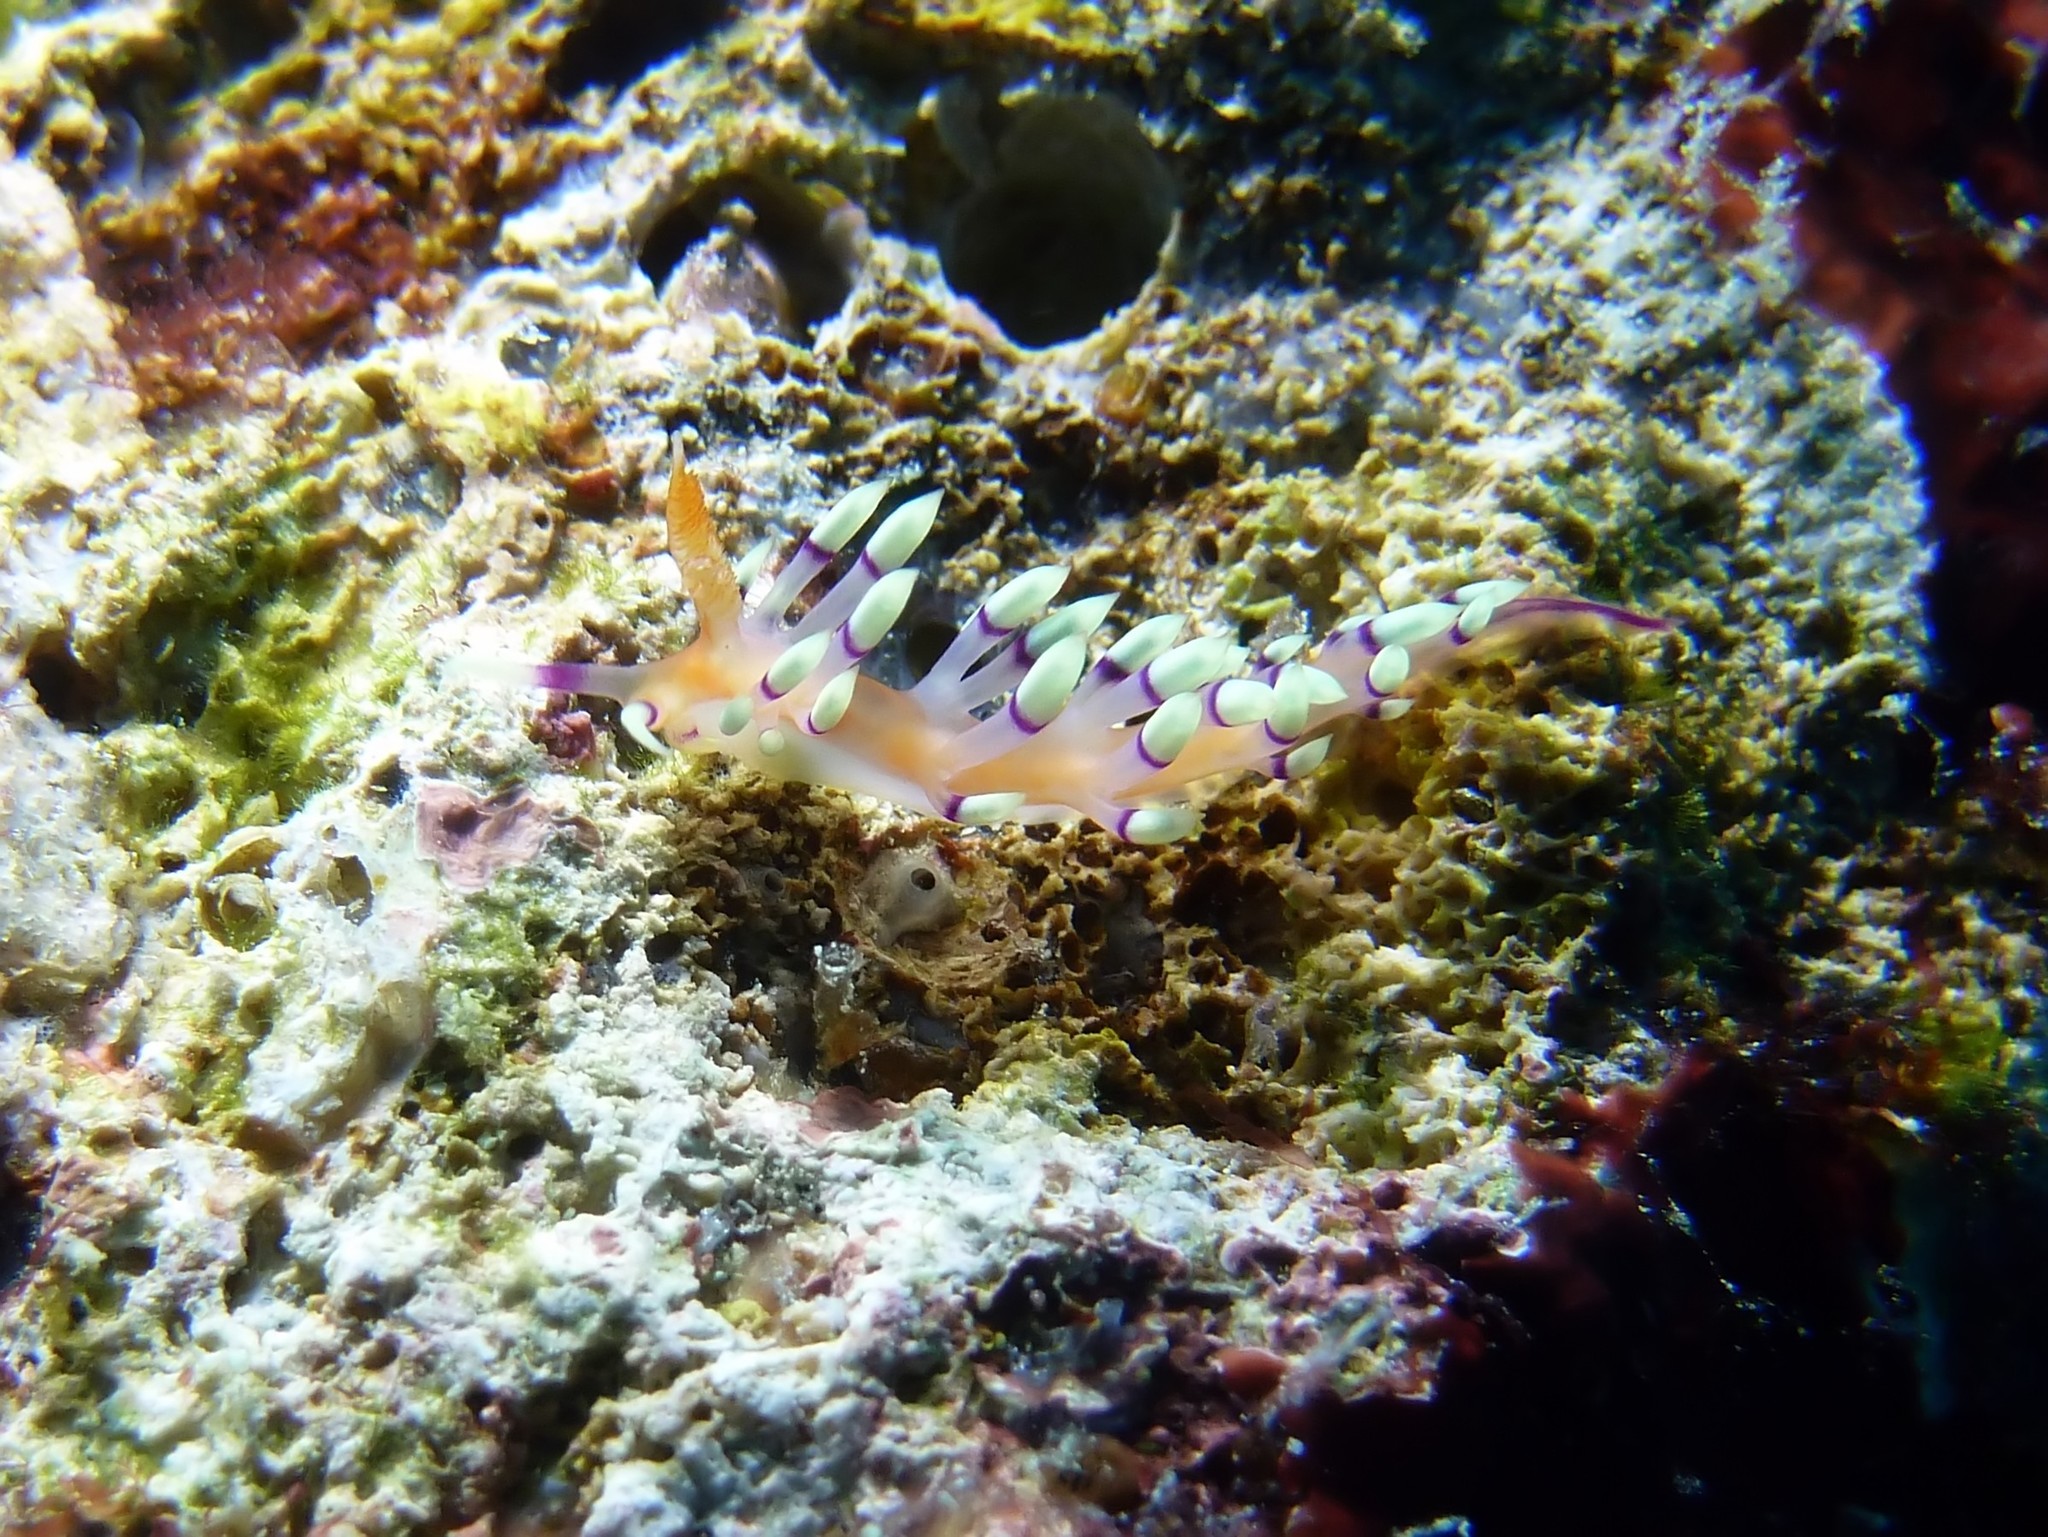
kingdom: Animalia
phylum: Mollusca
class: Gastropoda
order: Nudibranchia
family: Flabellinidae
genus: Coryphellina
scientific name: Coryphellina exoptata
